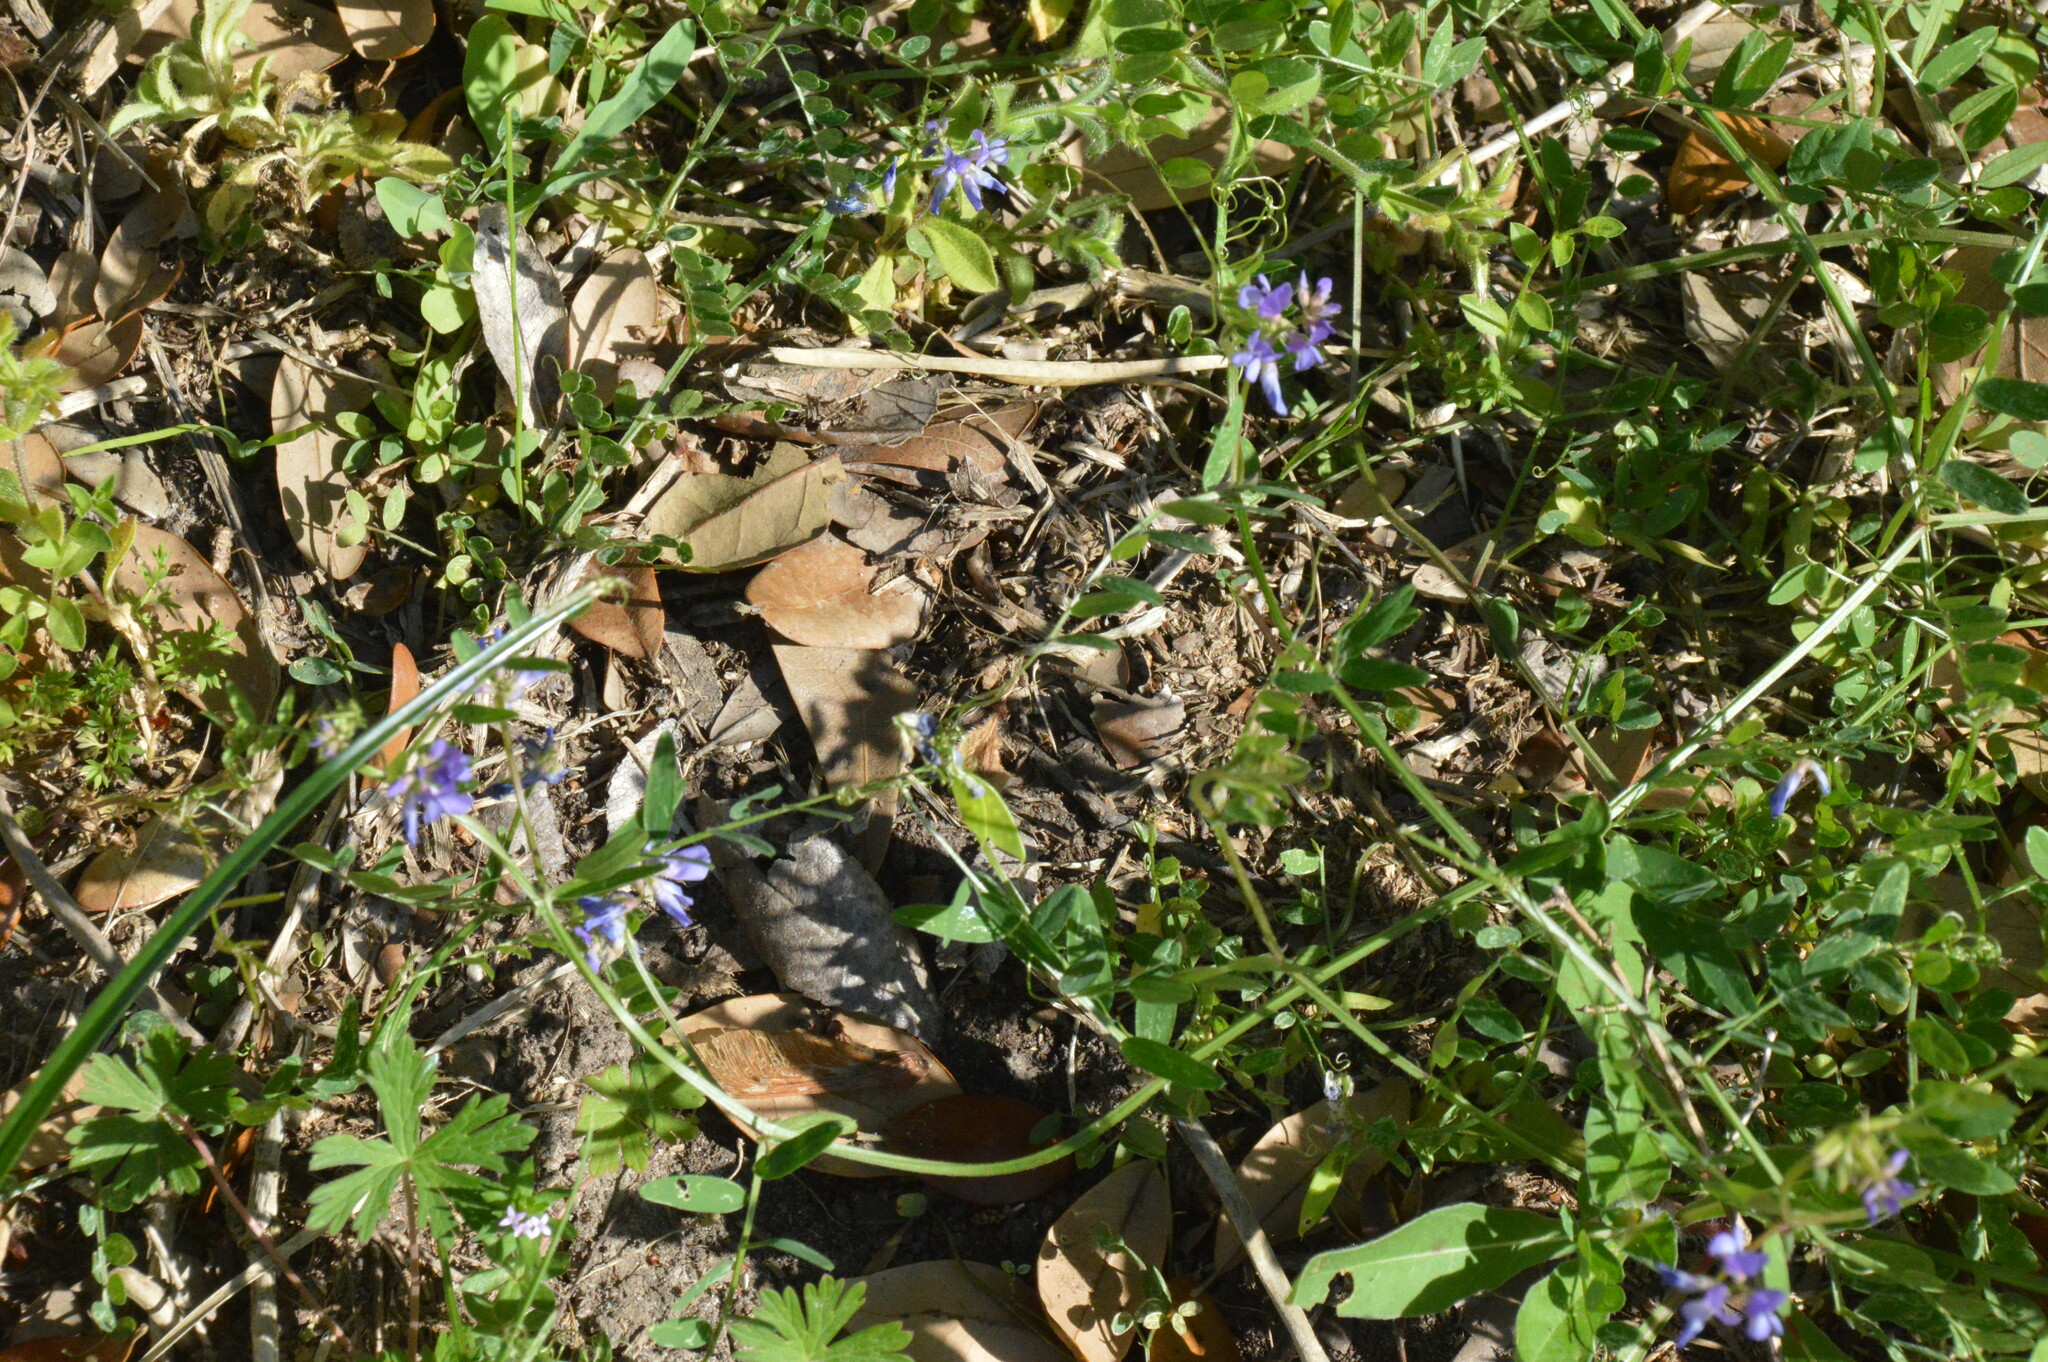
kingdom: Plantae
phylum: Tracheophyta
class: Magnoliopsida
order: Fabales
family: Fabaceae
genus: Vicia
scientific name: Vicia ludoviciana
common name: Louisiana vetch
